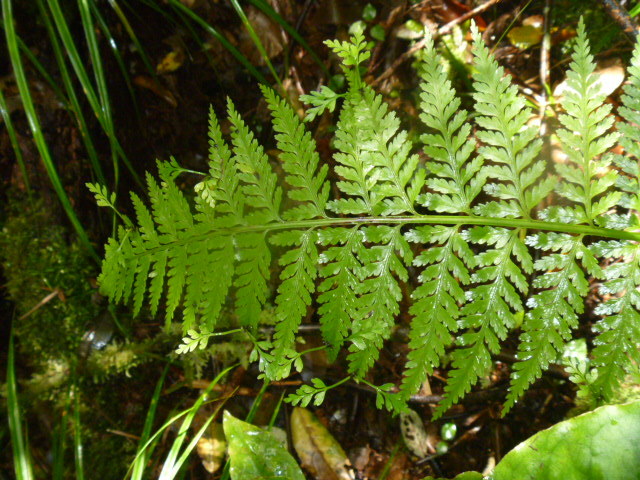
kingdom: Plantae
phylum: Tracheophyta
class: Polypodiopsida
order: Polypodiales
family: Aspleniaceae
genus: Asplenium
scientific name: Asplenium bulbiferum
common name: Mother fern
